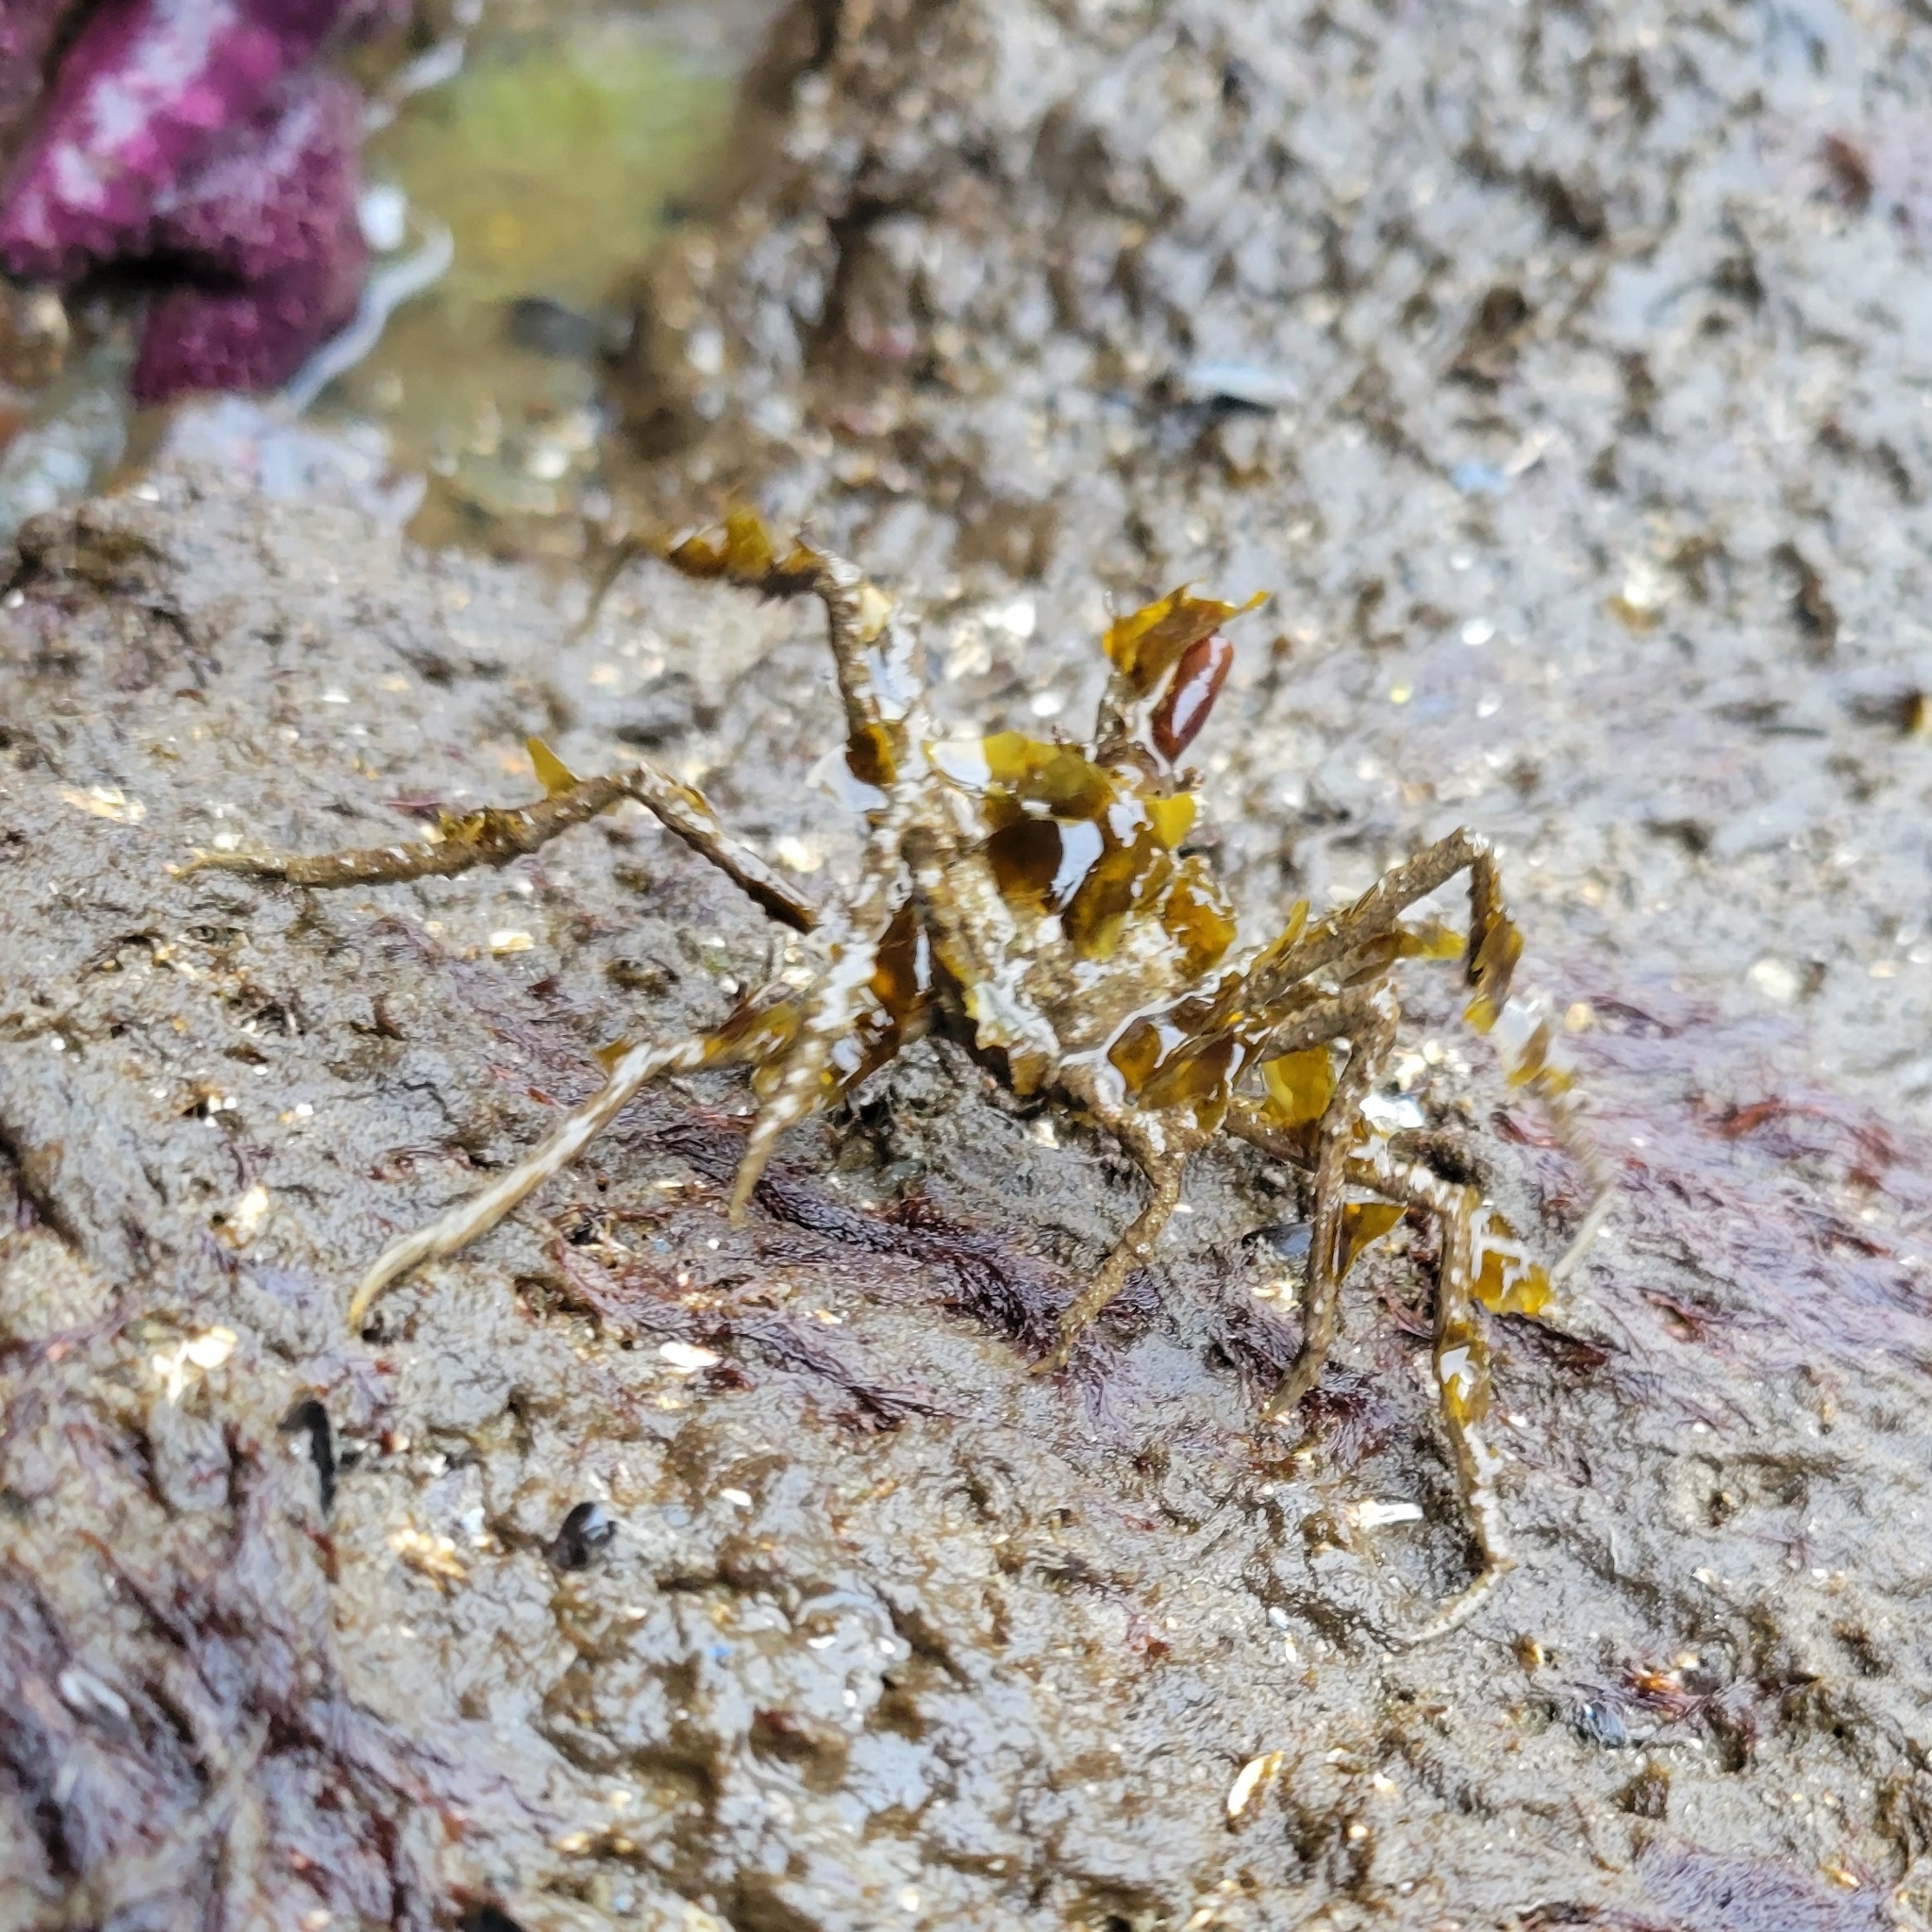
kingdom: Animalia
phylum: Arthropoda
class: Malacostraca
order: Decapoda
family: Oregoniidae
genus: Oregonia
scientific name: Oregonia gracilis
